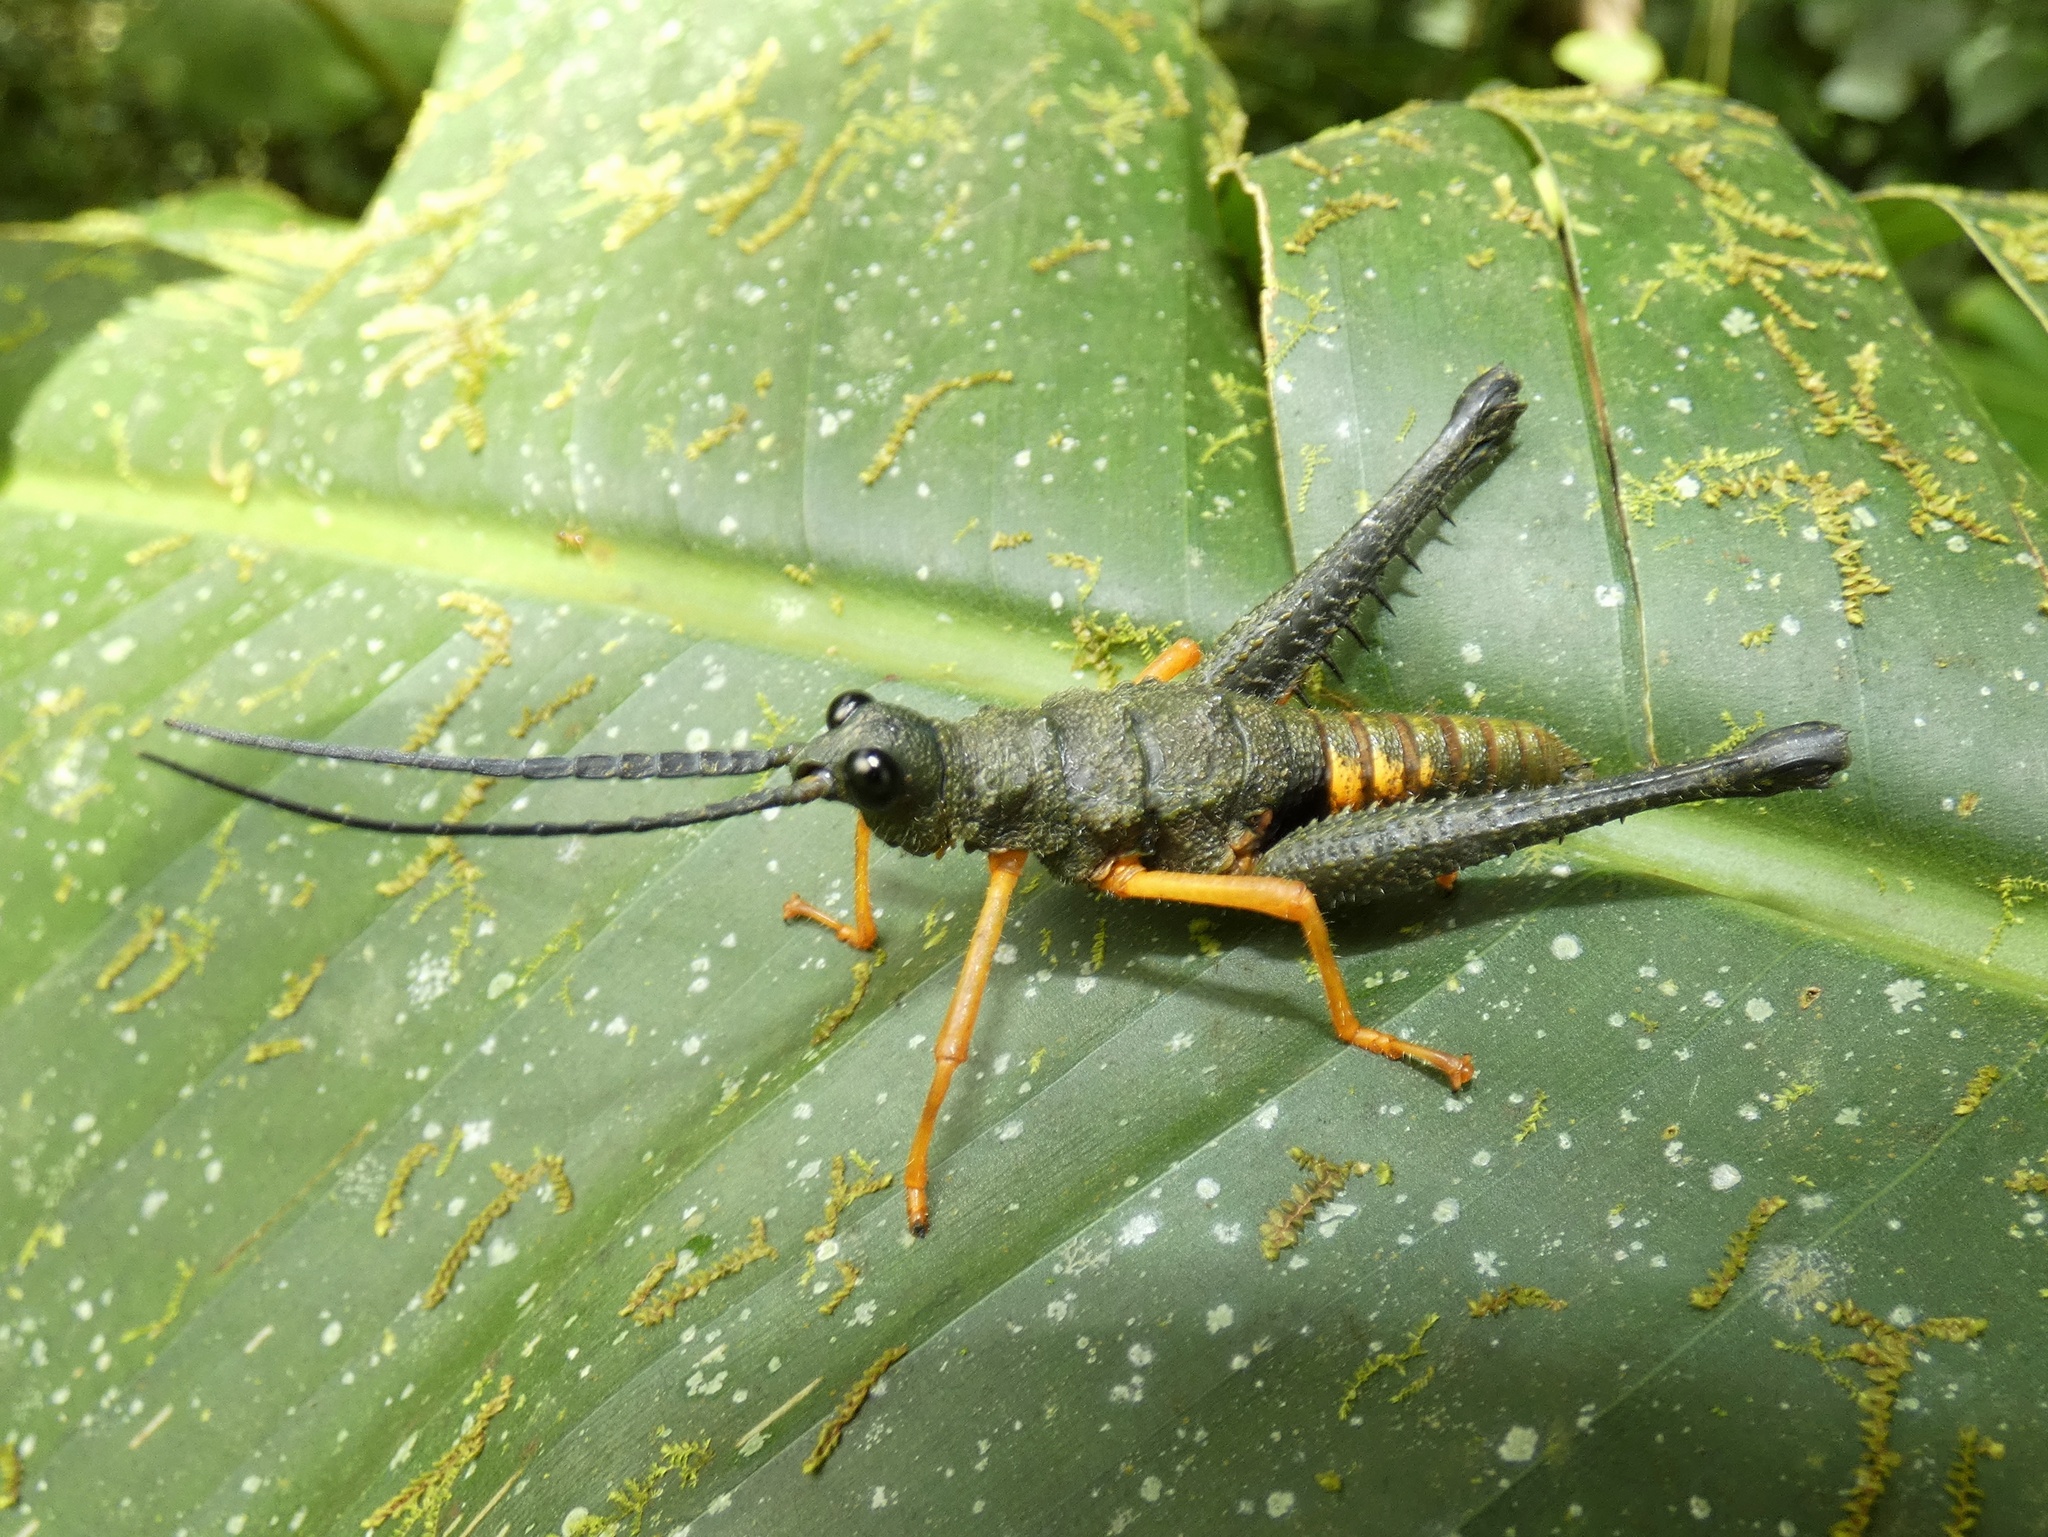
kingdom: Animalia
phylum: Arthropoda
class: Insecta
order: Orthoptera
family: Acrididae
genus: Piezops
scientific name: Piezops ensicornis
